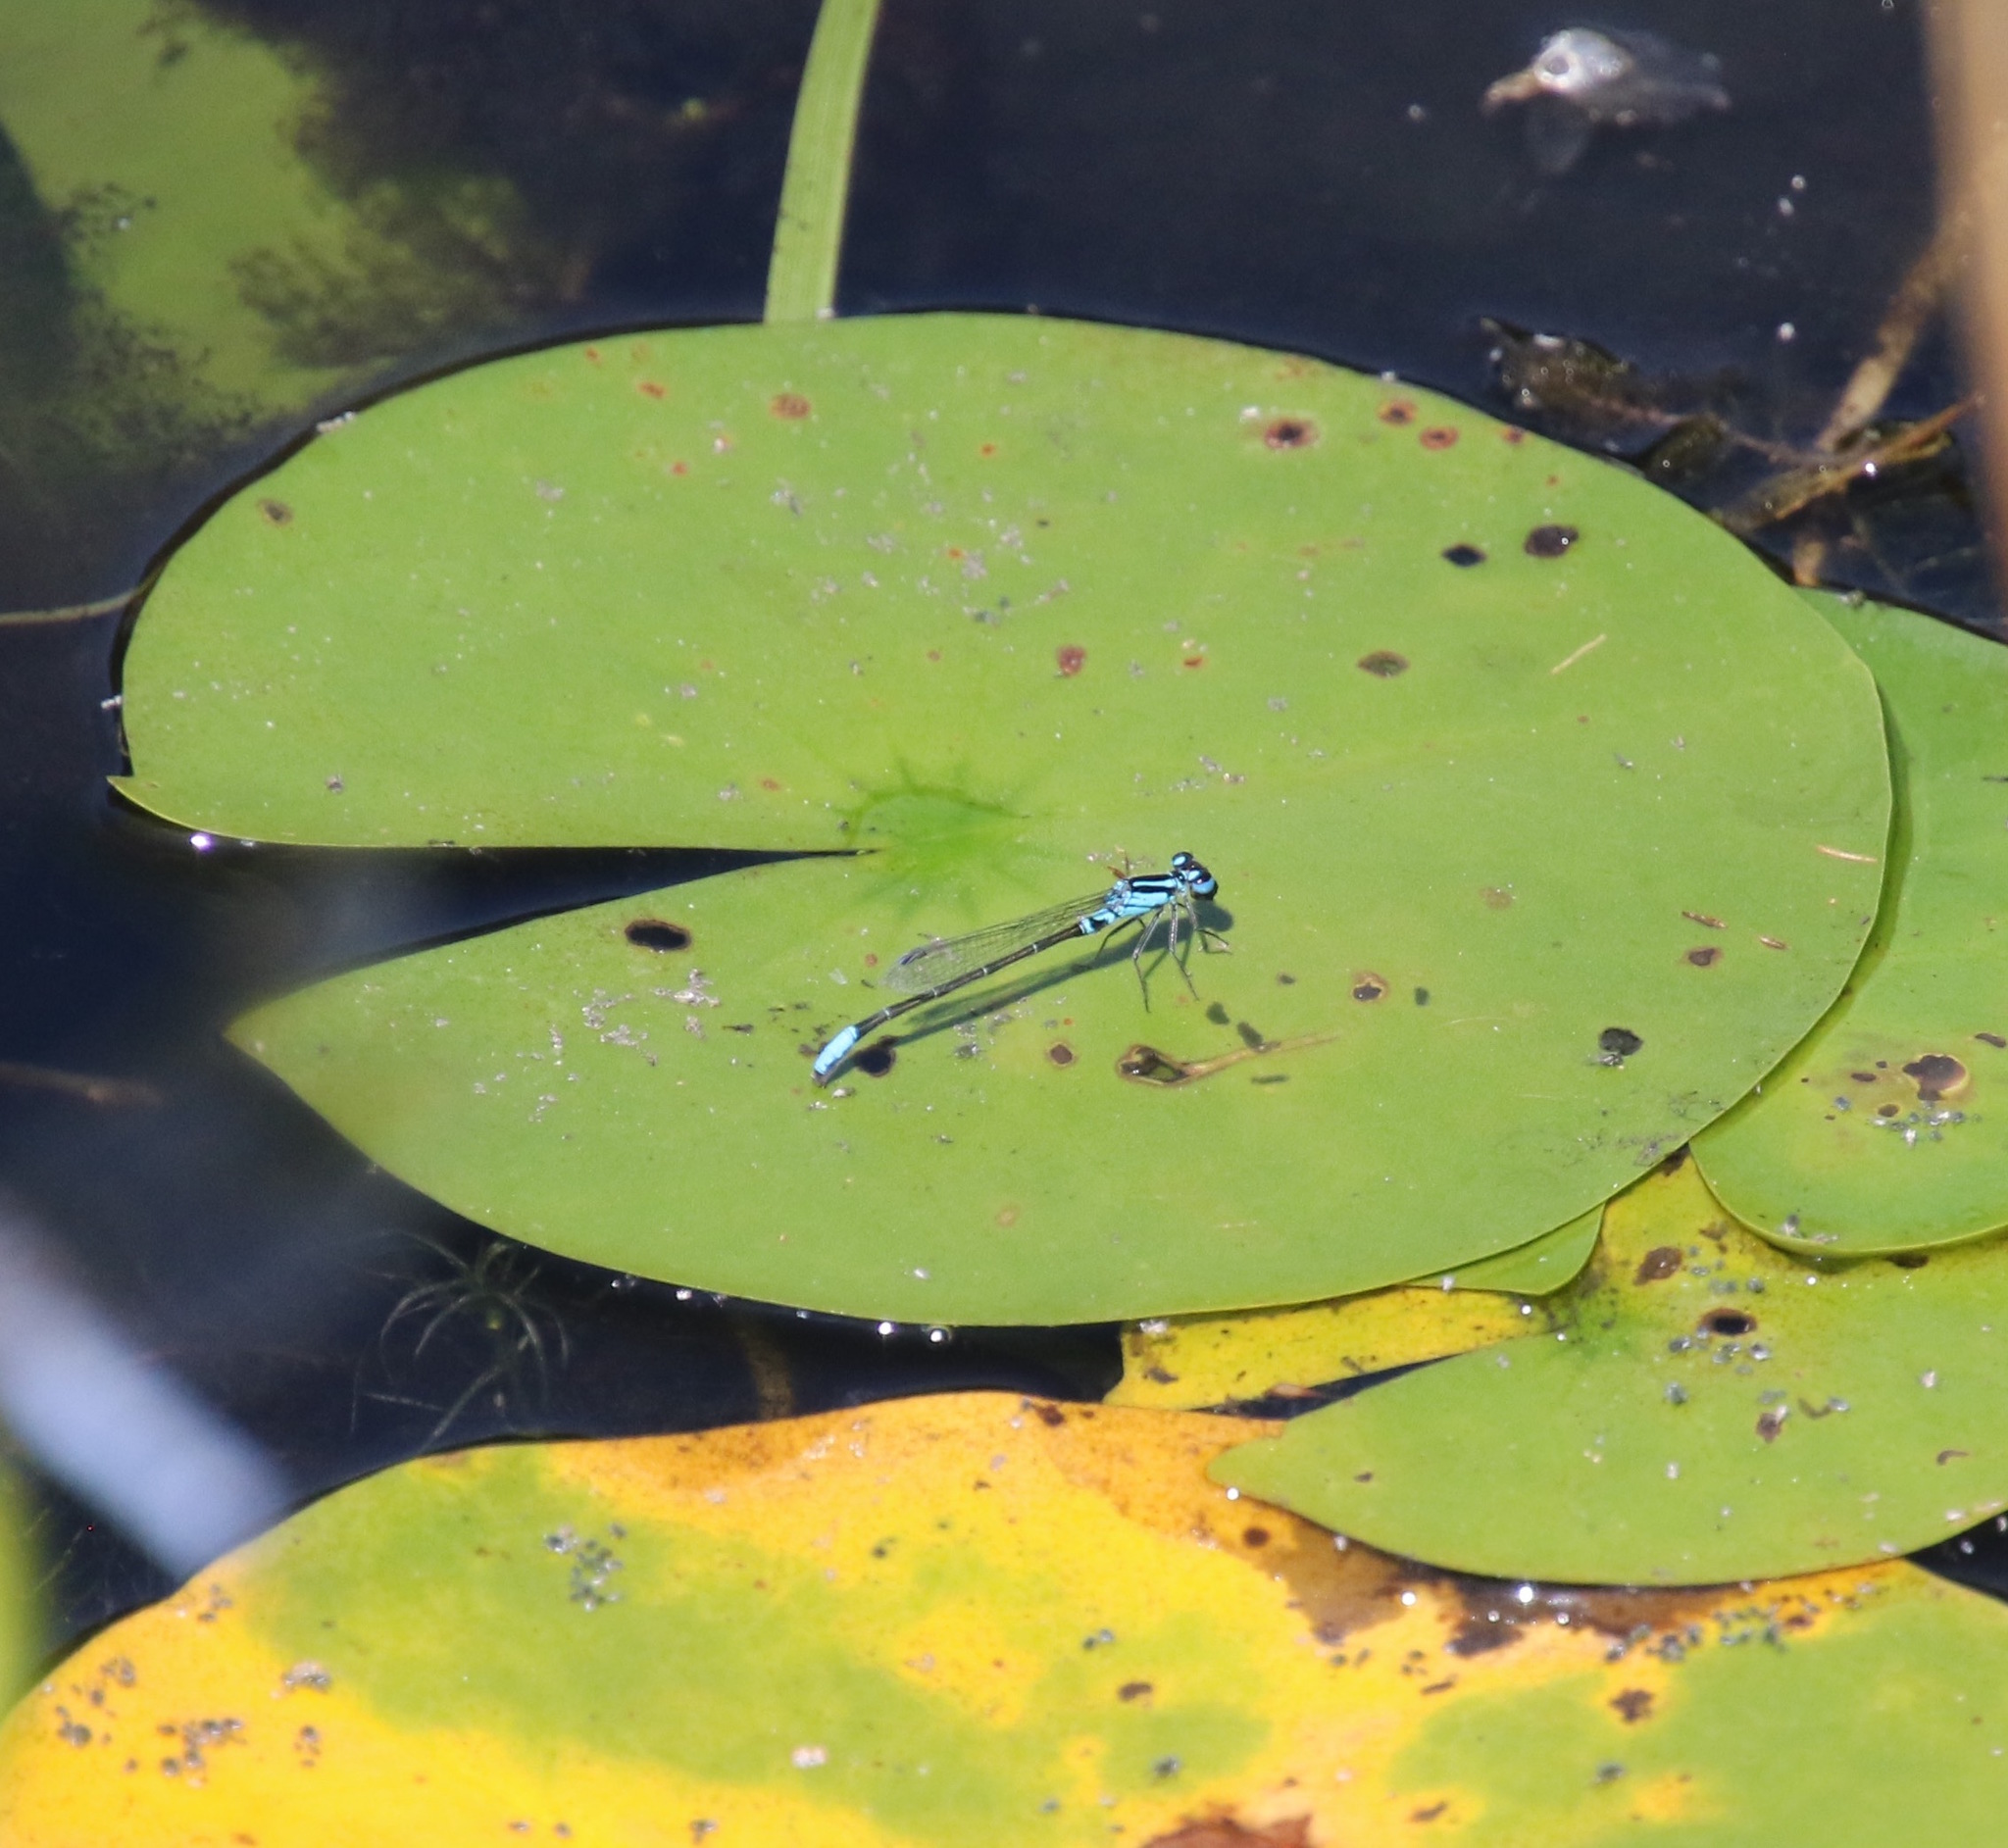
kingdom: Animalia
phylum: Arthropoda
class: Insecta
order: Odonata
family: Coenagrionidae
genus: Ischnura
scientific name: Ischnura kellicotti
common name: Lilypad forktail
